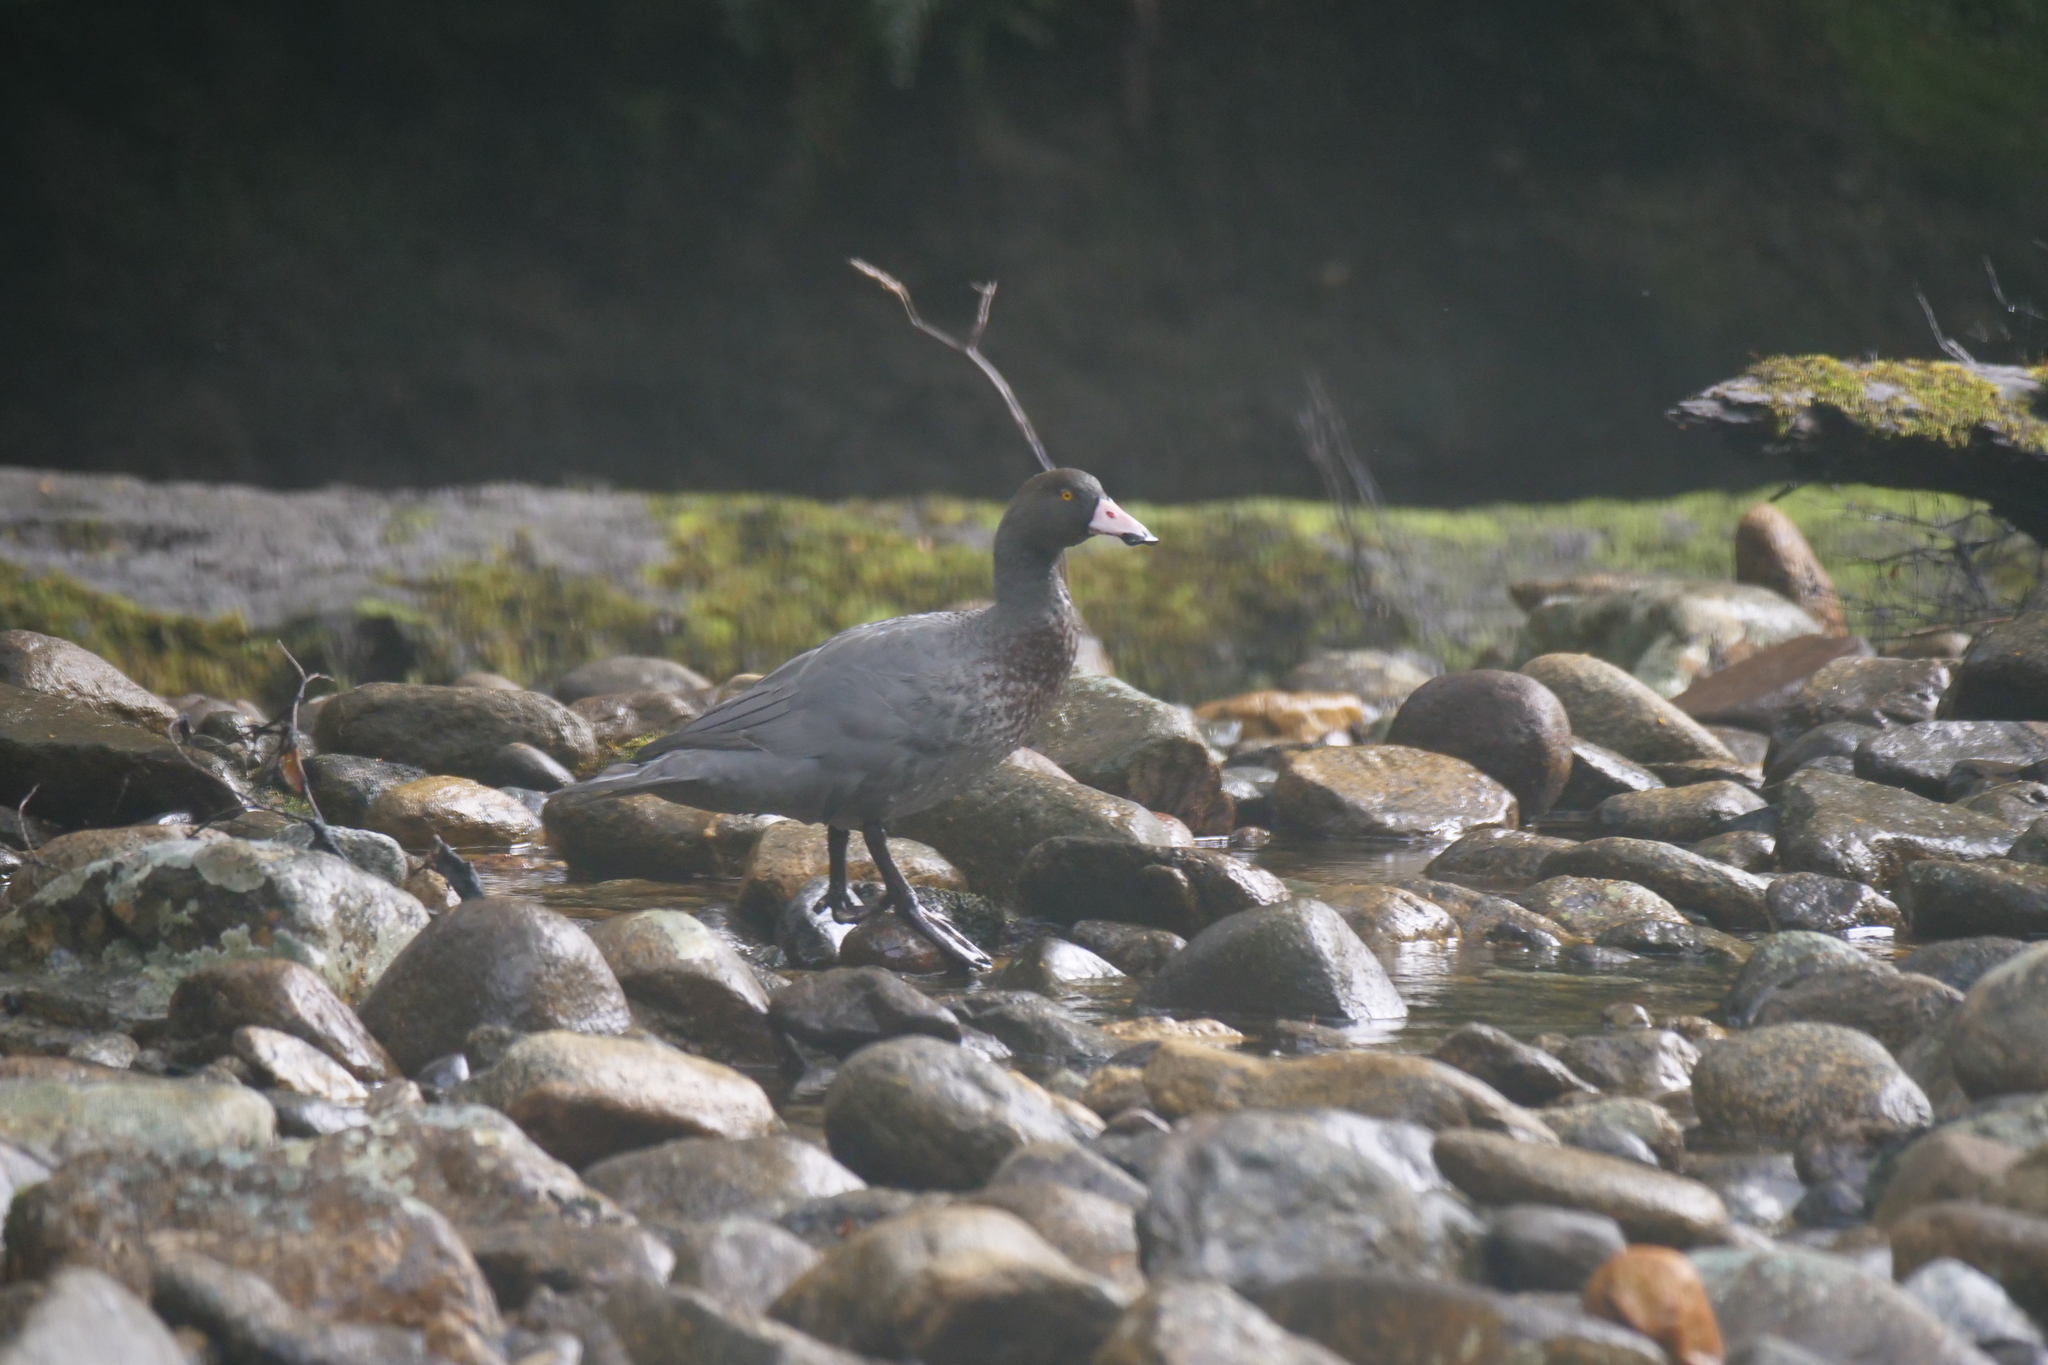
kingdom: Animalia
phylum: Chordata
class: Aves
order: Anseriformes
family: Anatidae
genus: Hymenolaimus
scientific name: Hymenolaimus malacorhynchos
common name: Blue duck
